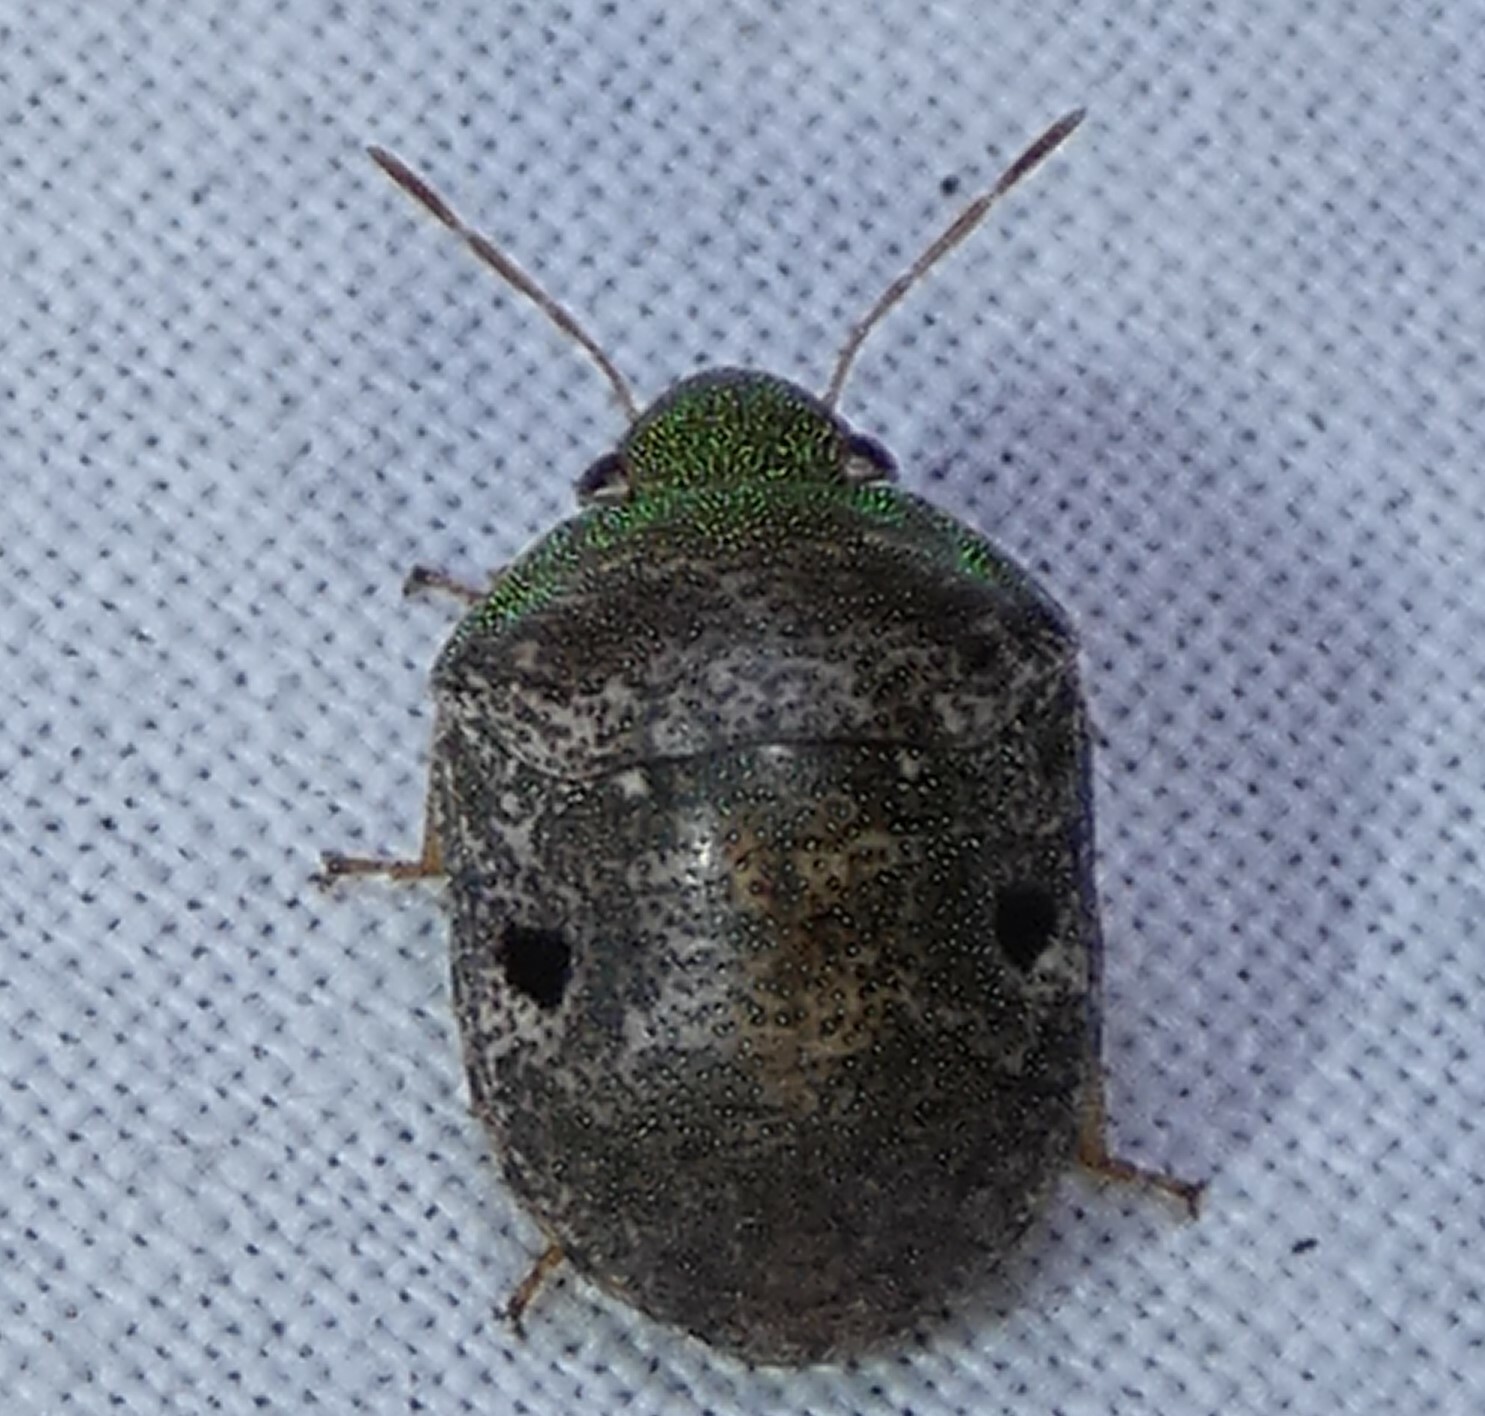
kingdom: Animalia
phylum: Arthropoda
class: Insecta
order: Hemiptera
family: Scutelleridae
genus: Diolcus
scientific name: Diolcus chrysorrhoeus
